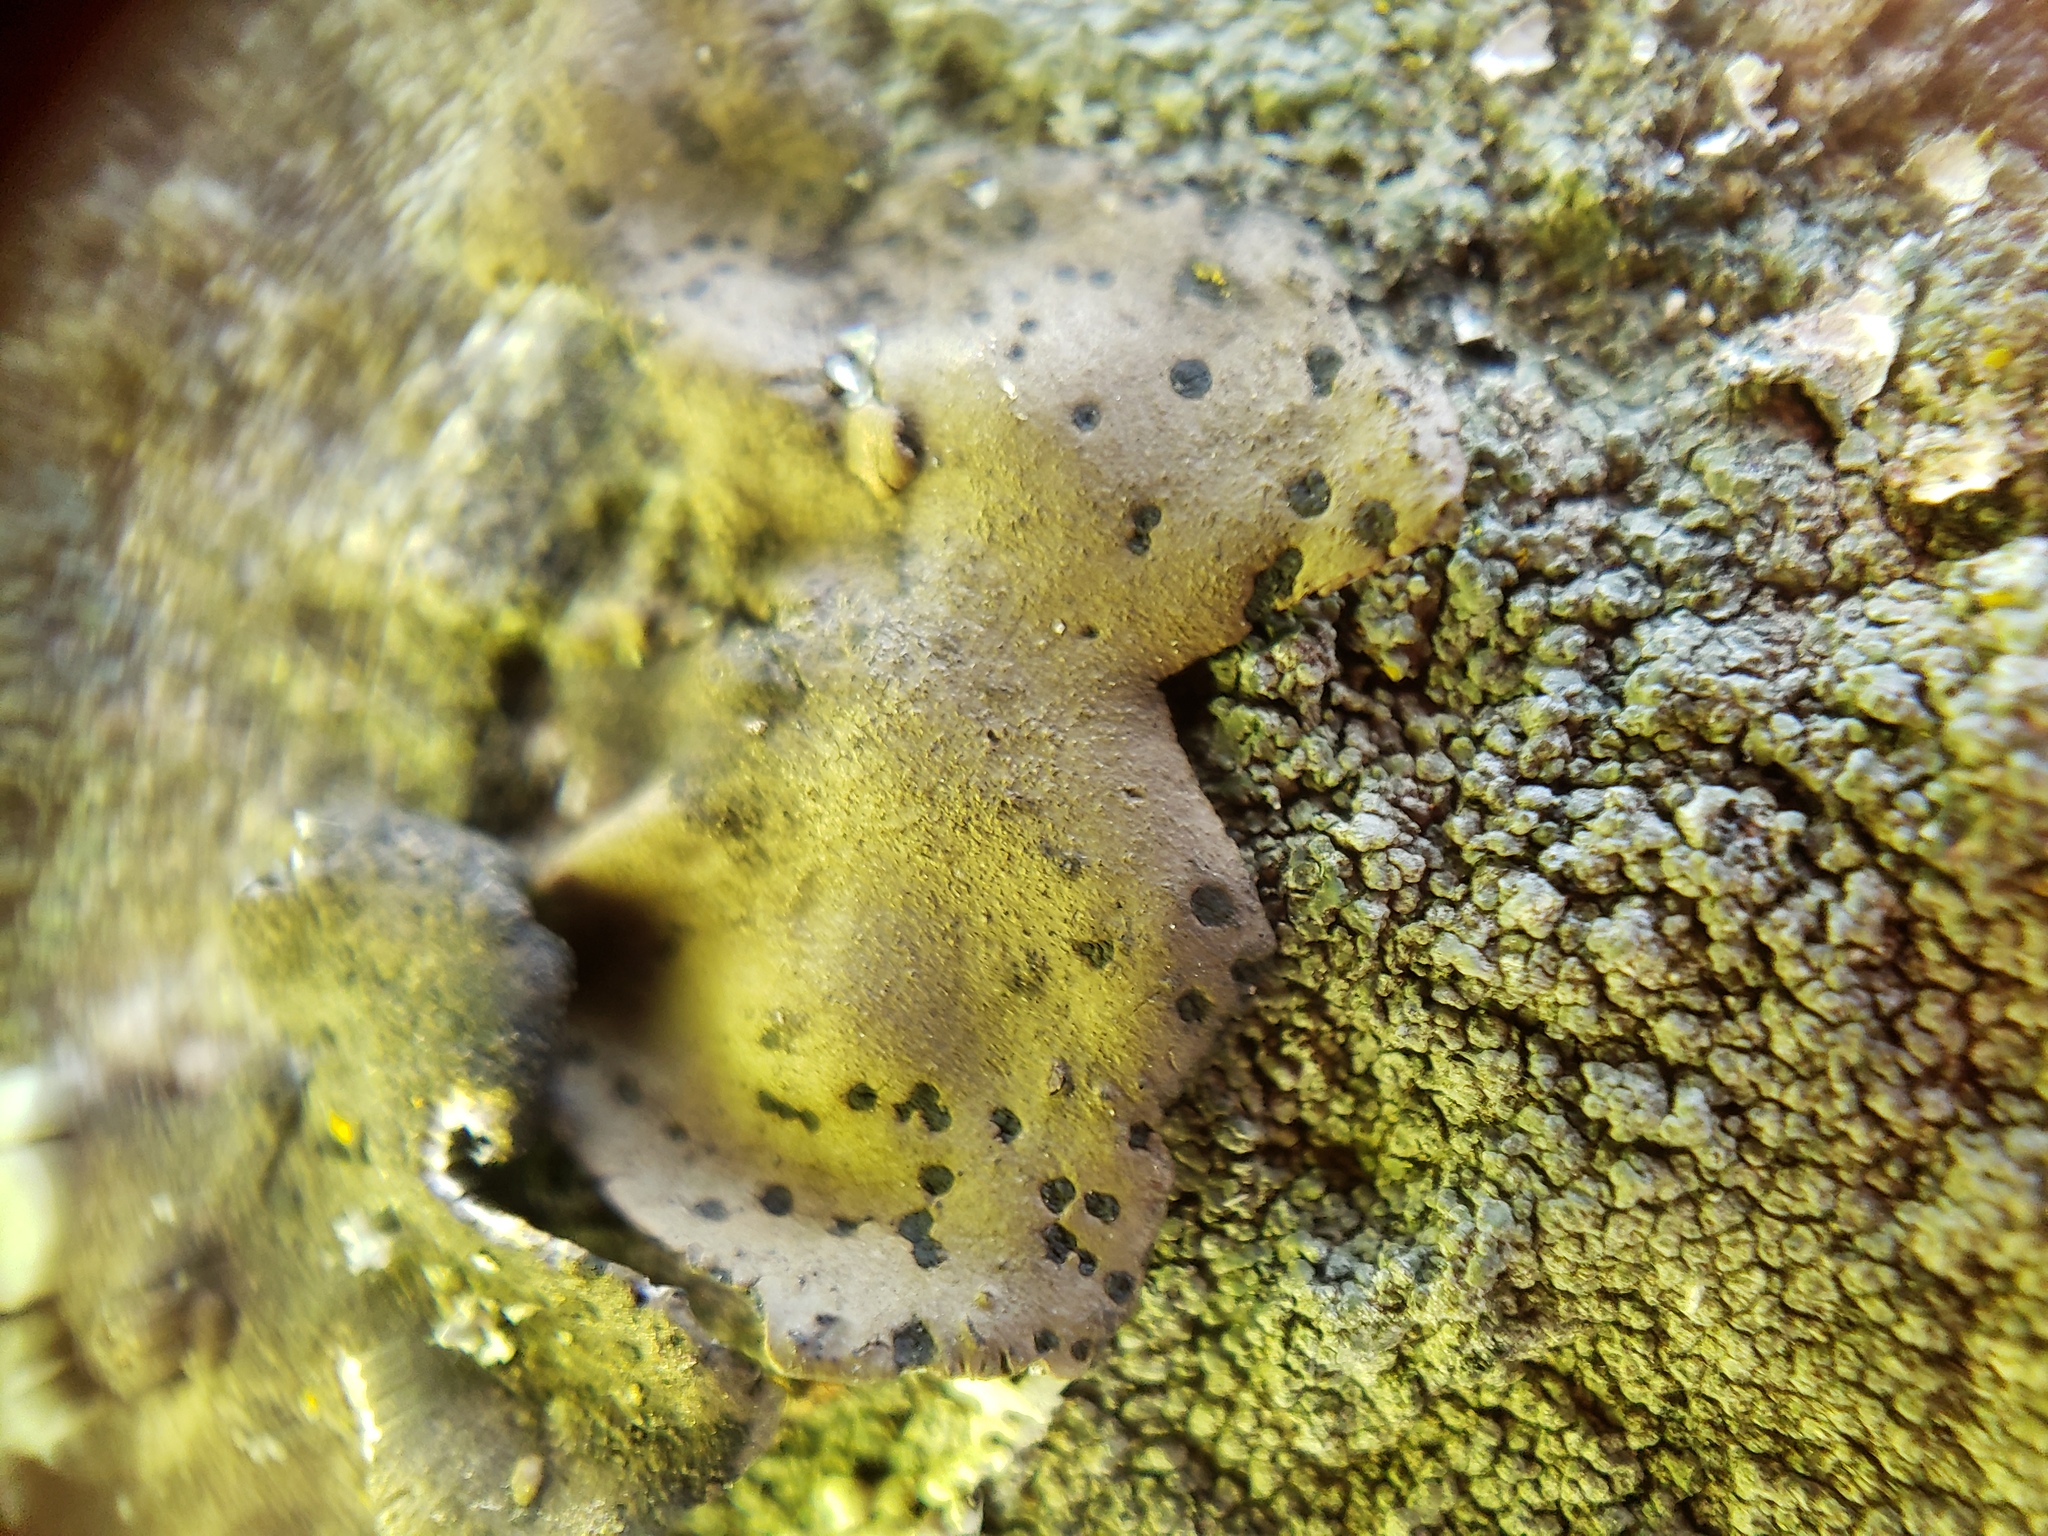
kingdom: Fungi
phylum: Ascomycota
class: Lecanoromycetes
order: Umbilicariales
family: Umbilicariaceae
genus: Umbilicaria
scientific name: Umbilicaria phaea
